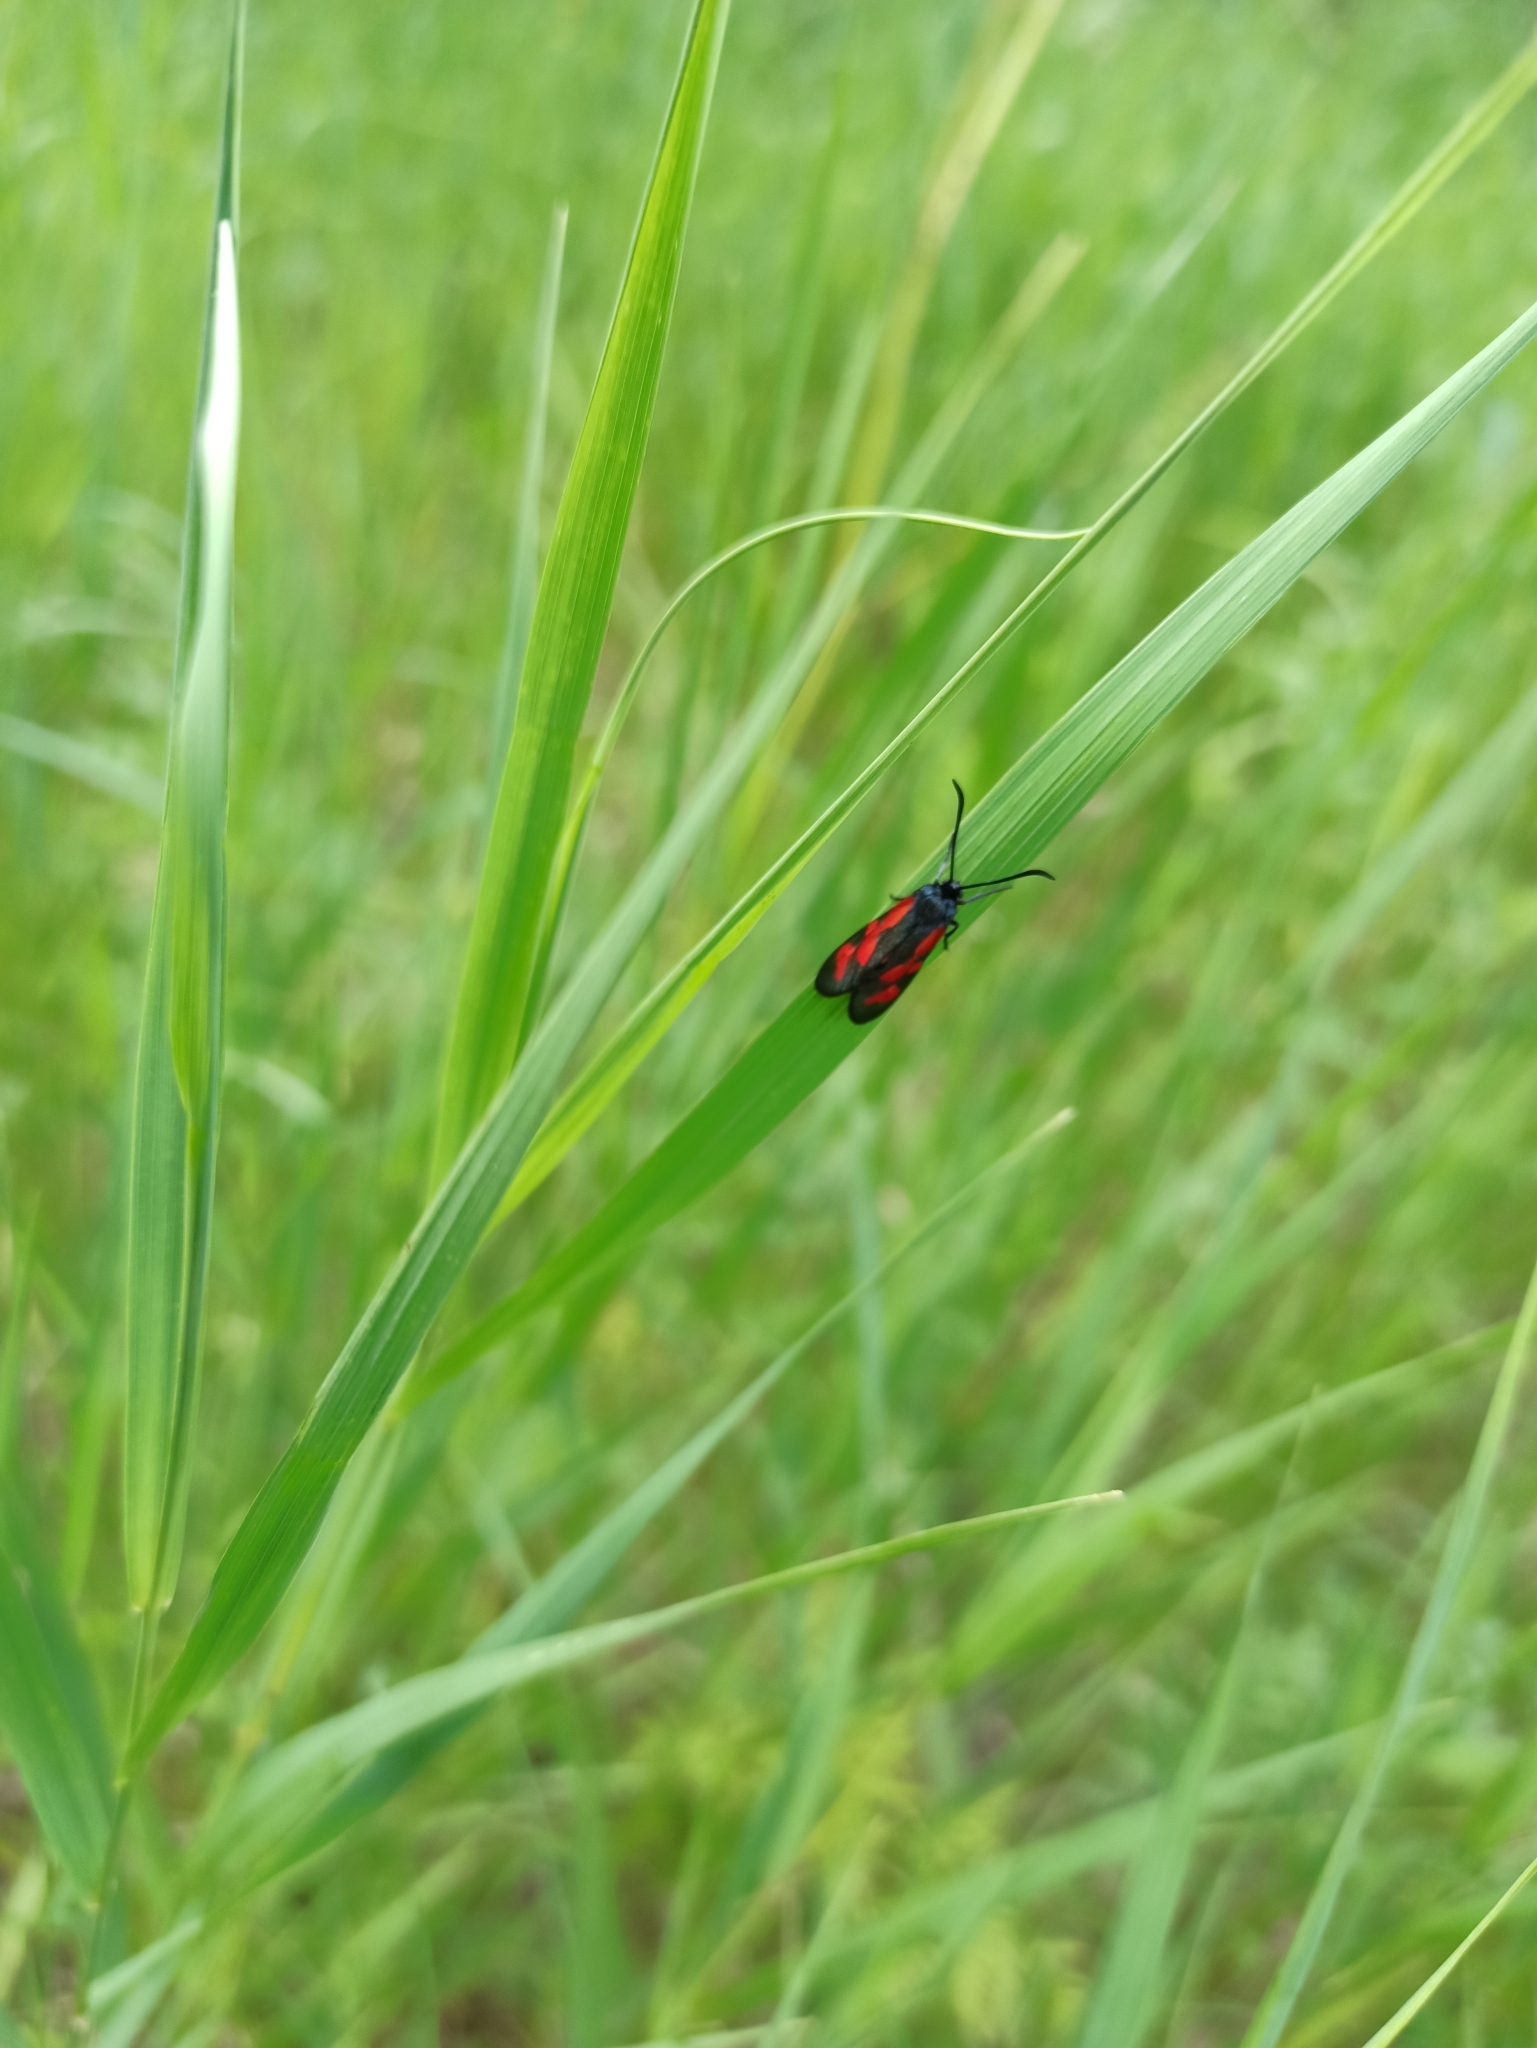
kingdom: Animalia
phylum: Arthropoda
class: Insecta
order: Lepidoptera
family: Zygaenidae
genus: Zygaena
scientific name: Zygaena viciae
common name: New forest burnet
